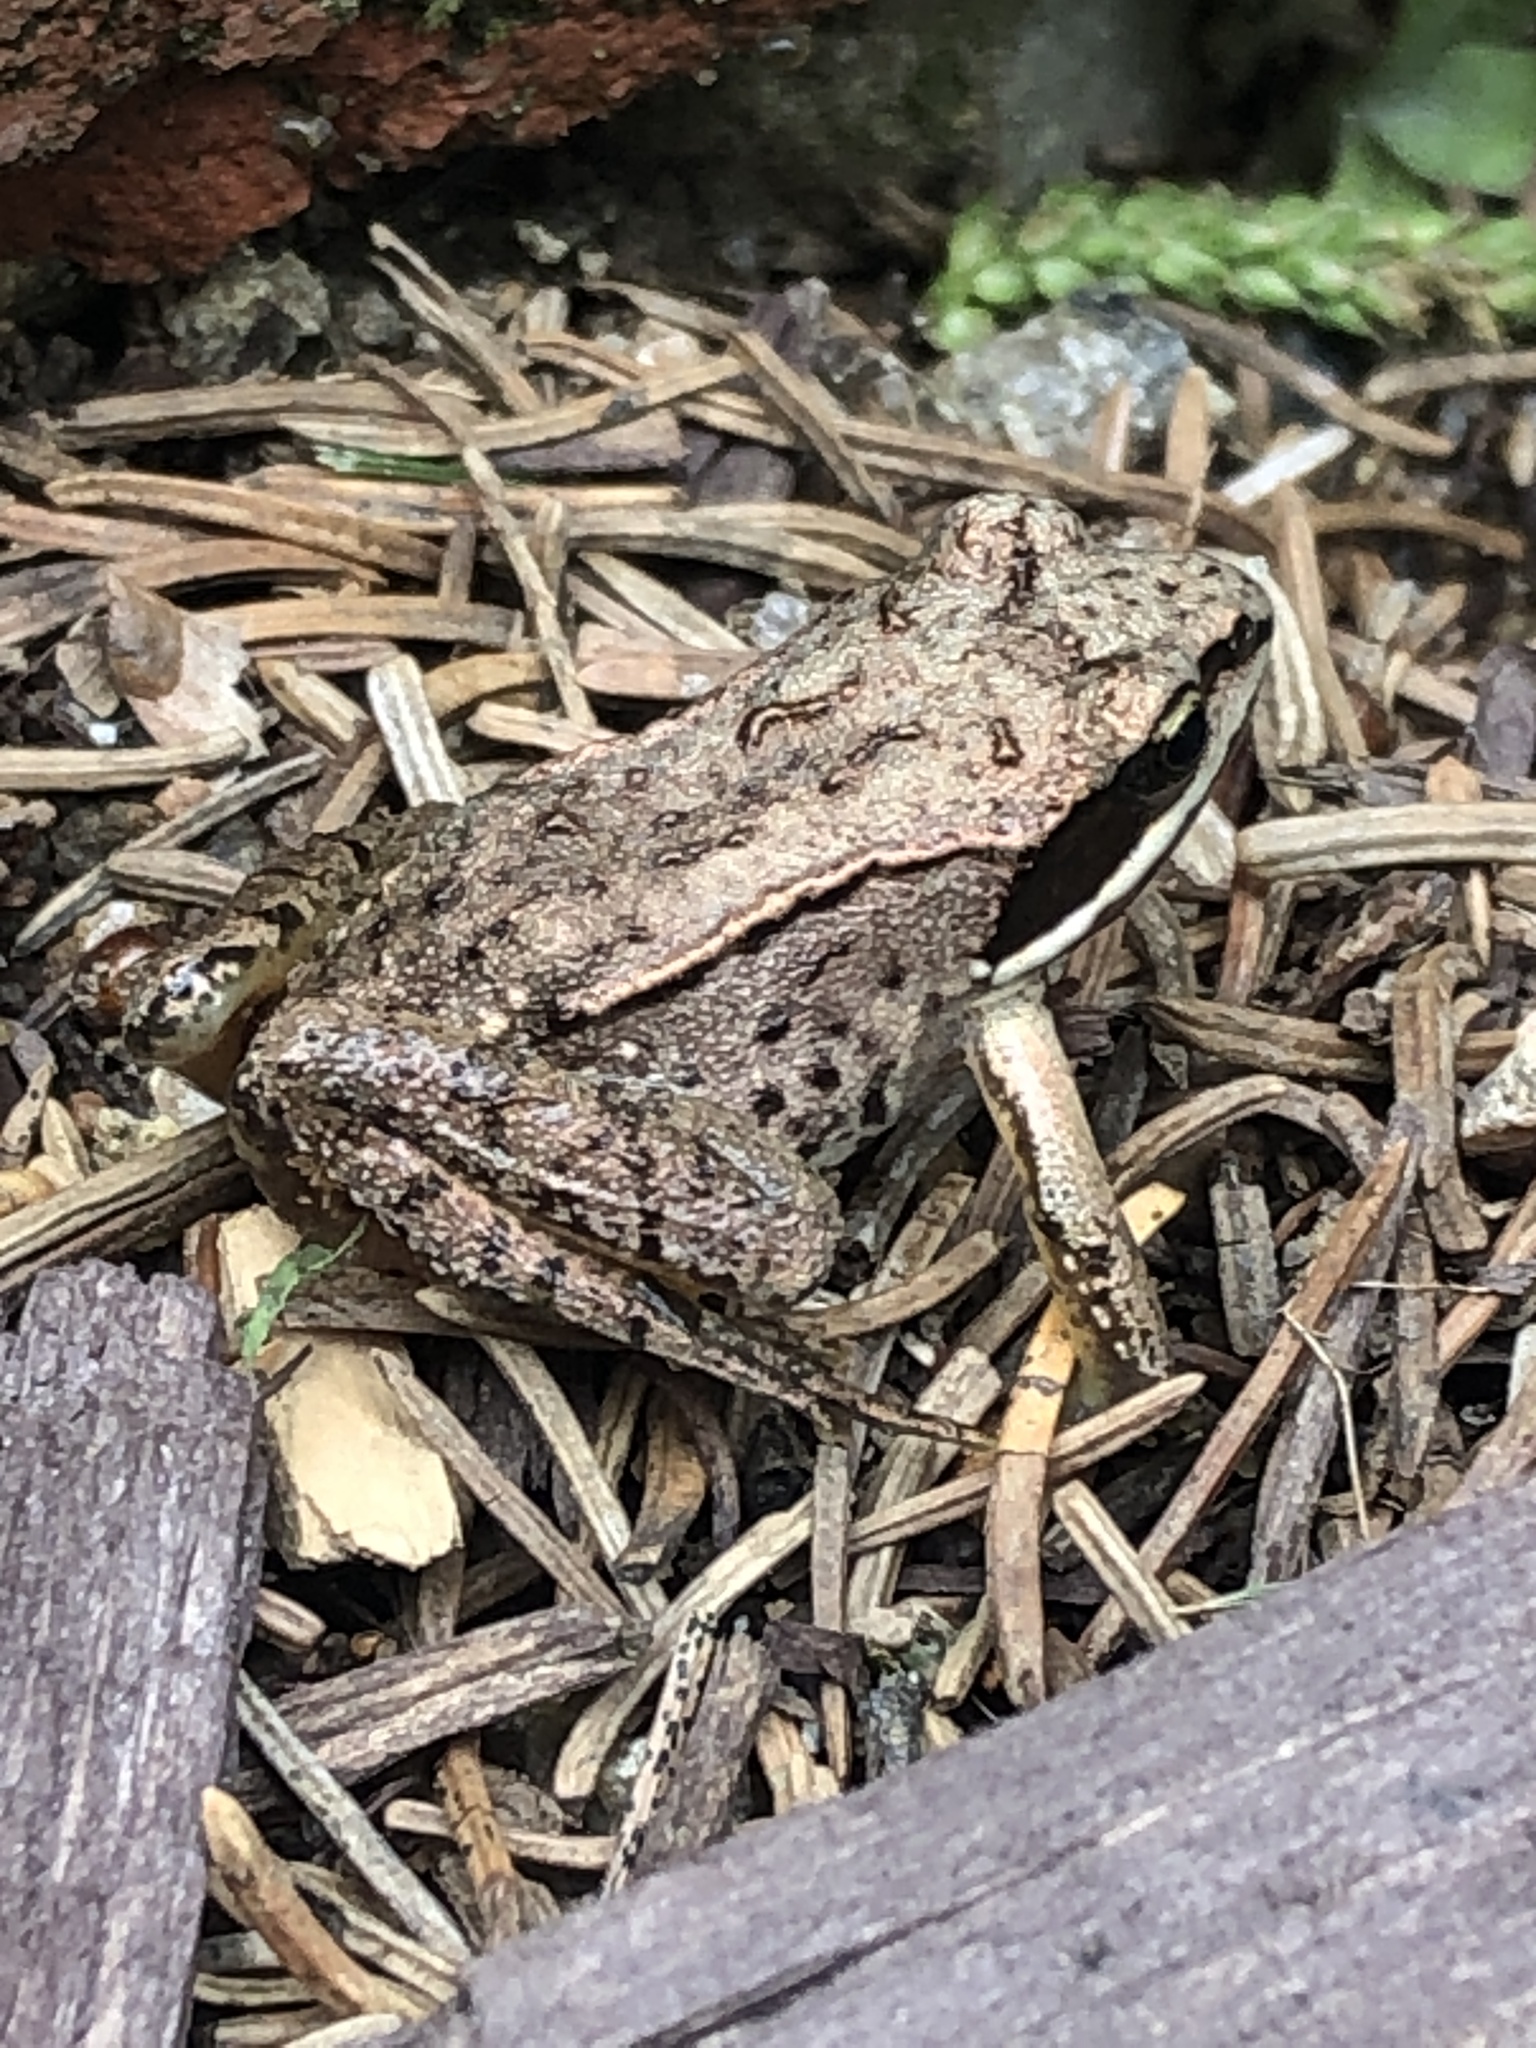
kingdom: Animalia
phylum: Chordata
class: Amphibia
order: Anura
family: Ranidae
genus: Lithobates
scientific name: Lithobates sylvaticus
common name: Wood frog
